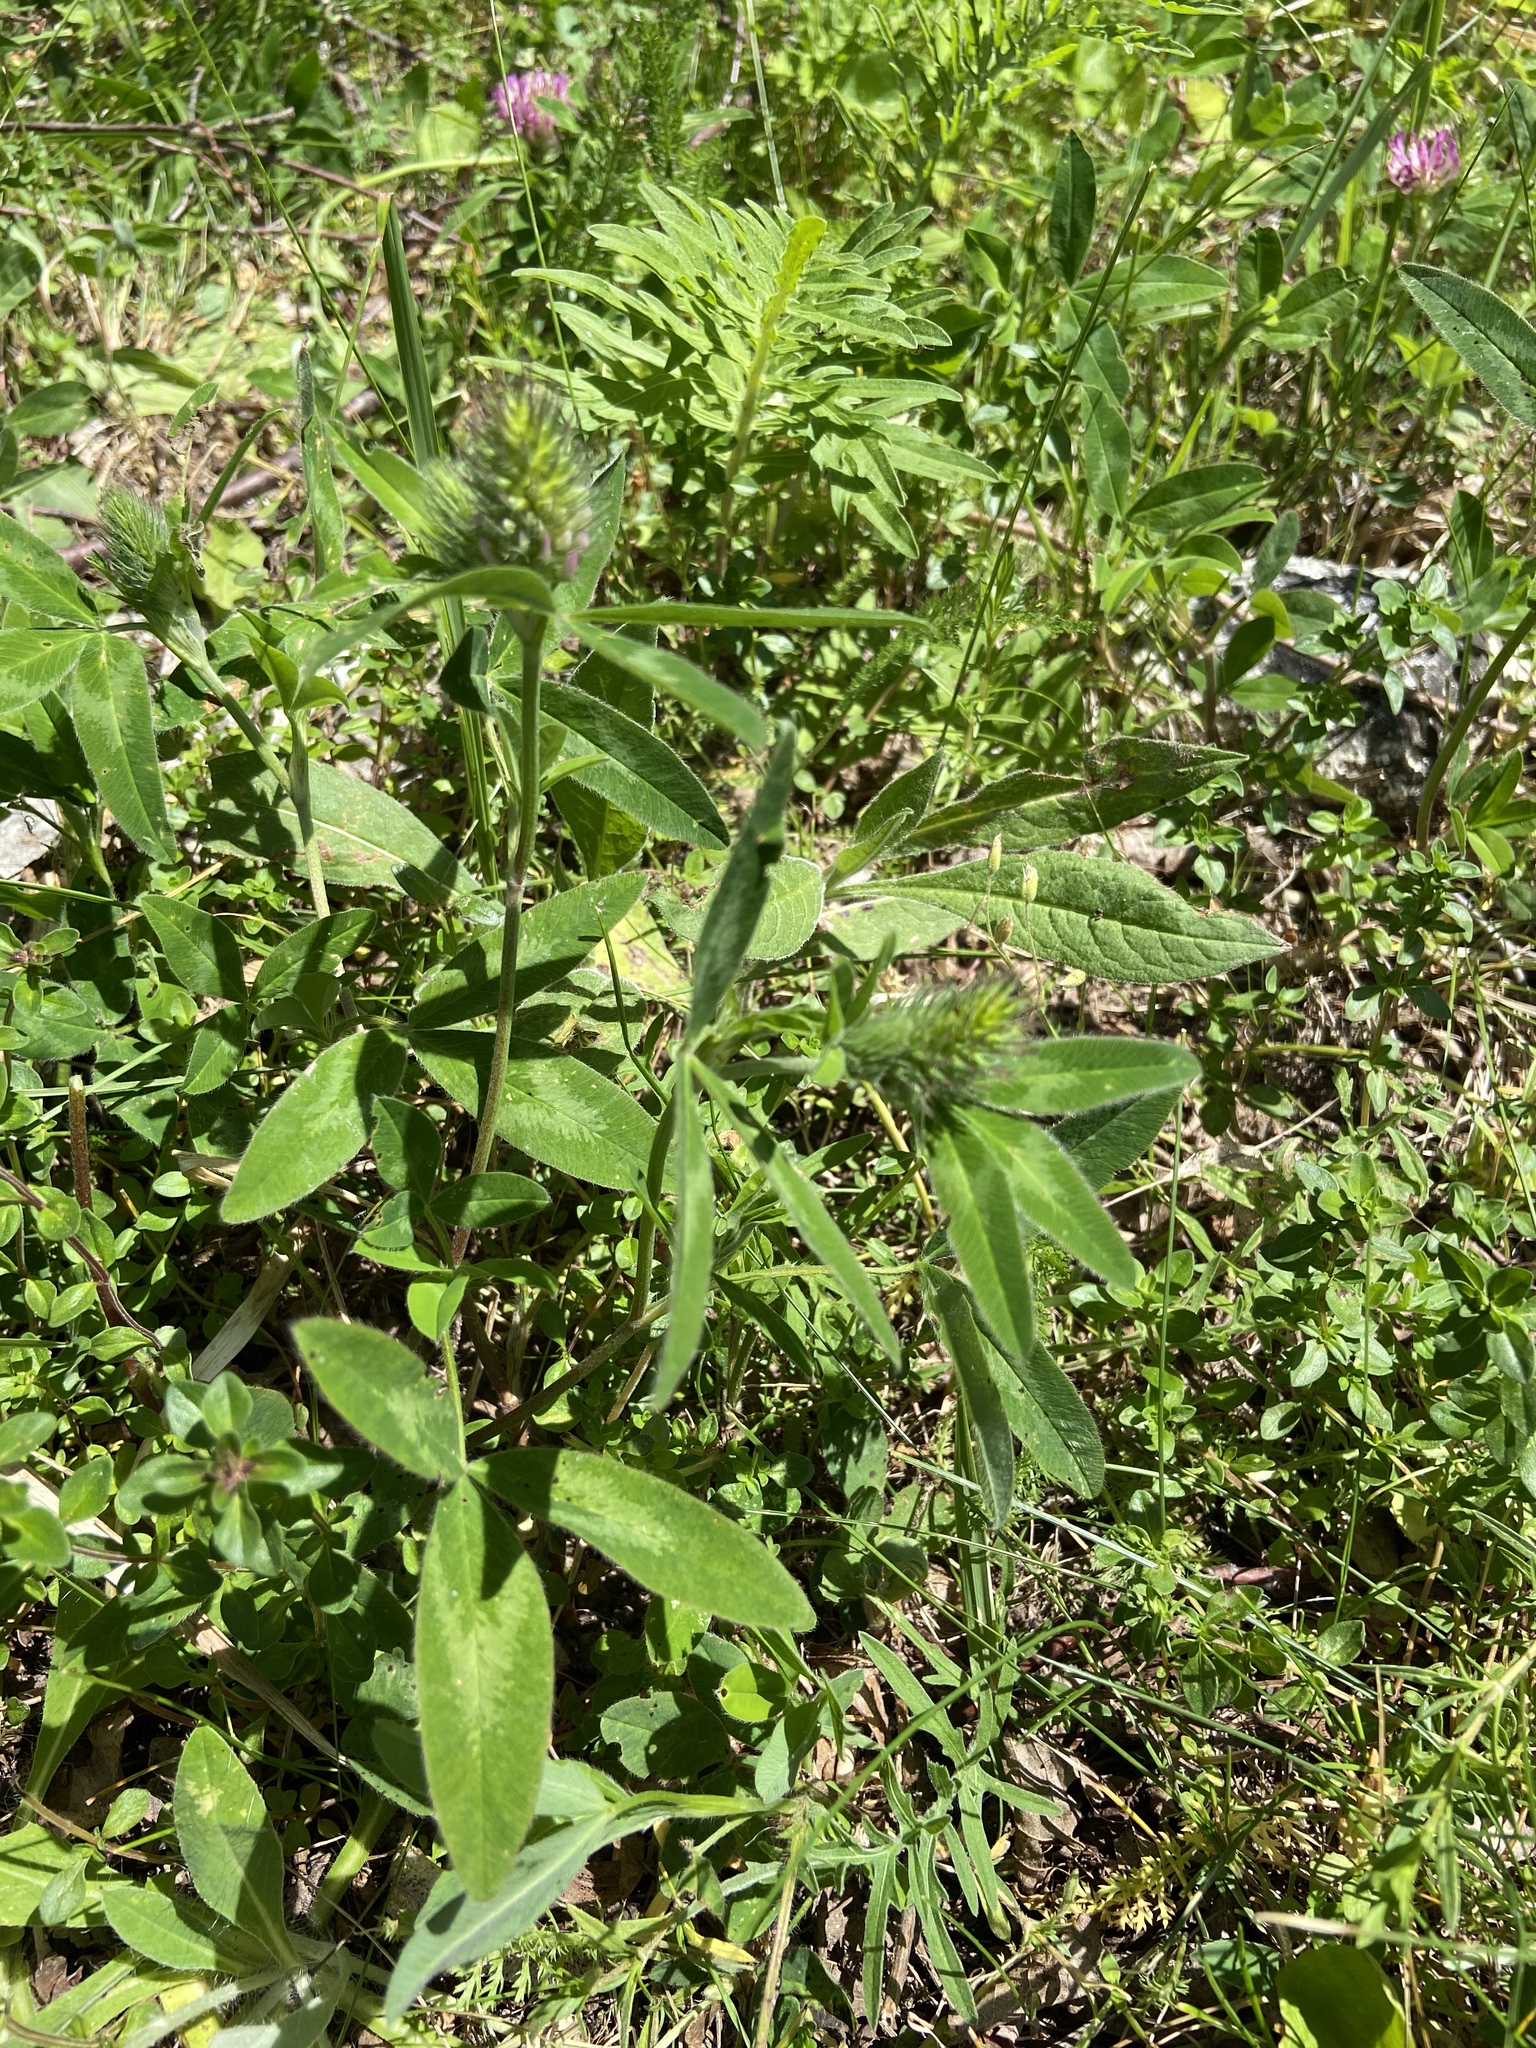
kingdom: Plantae
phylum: Tracheophyta
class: Magnoliopsida
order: Fabales
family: Fabaceae
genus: Trifolium
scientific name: Trifolium pratense
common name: Red clover
